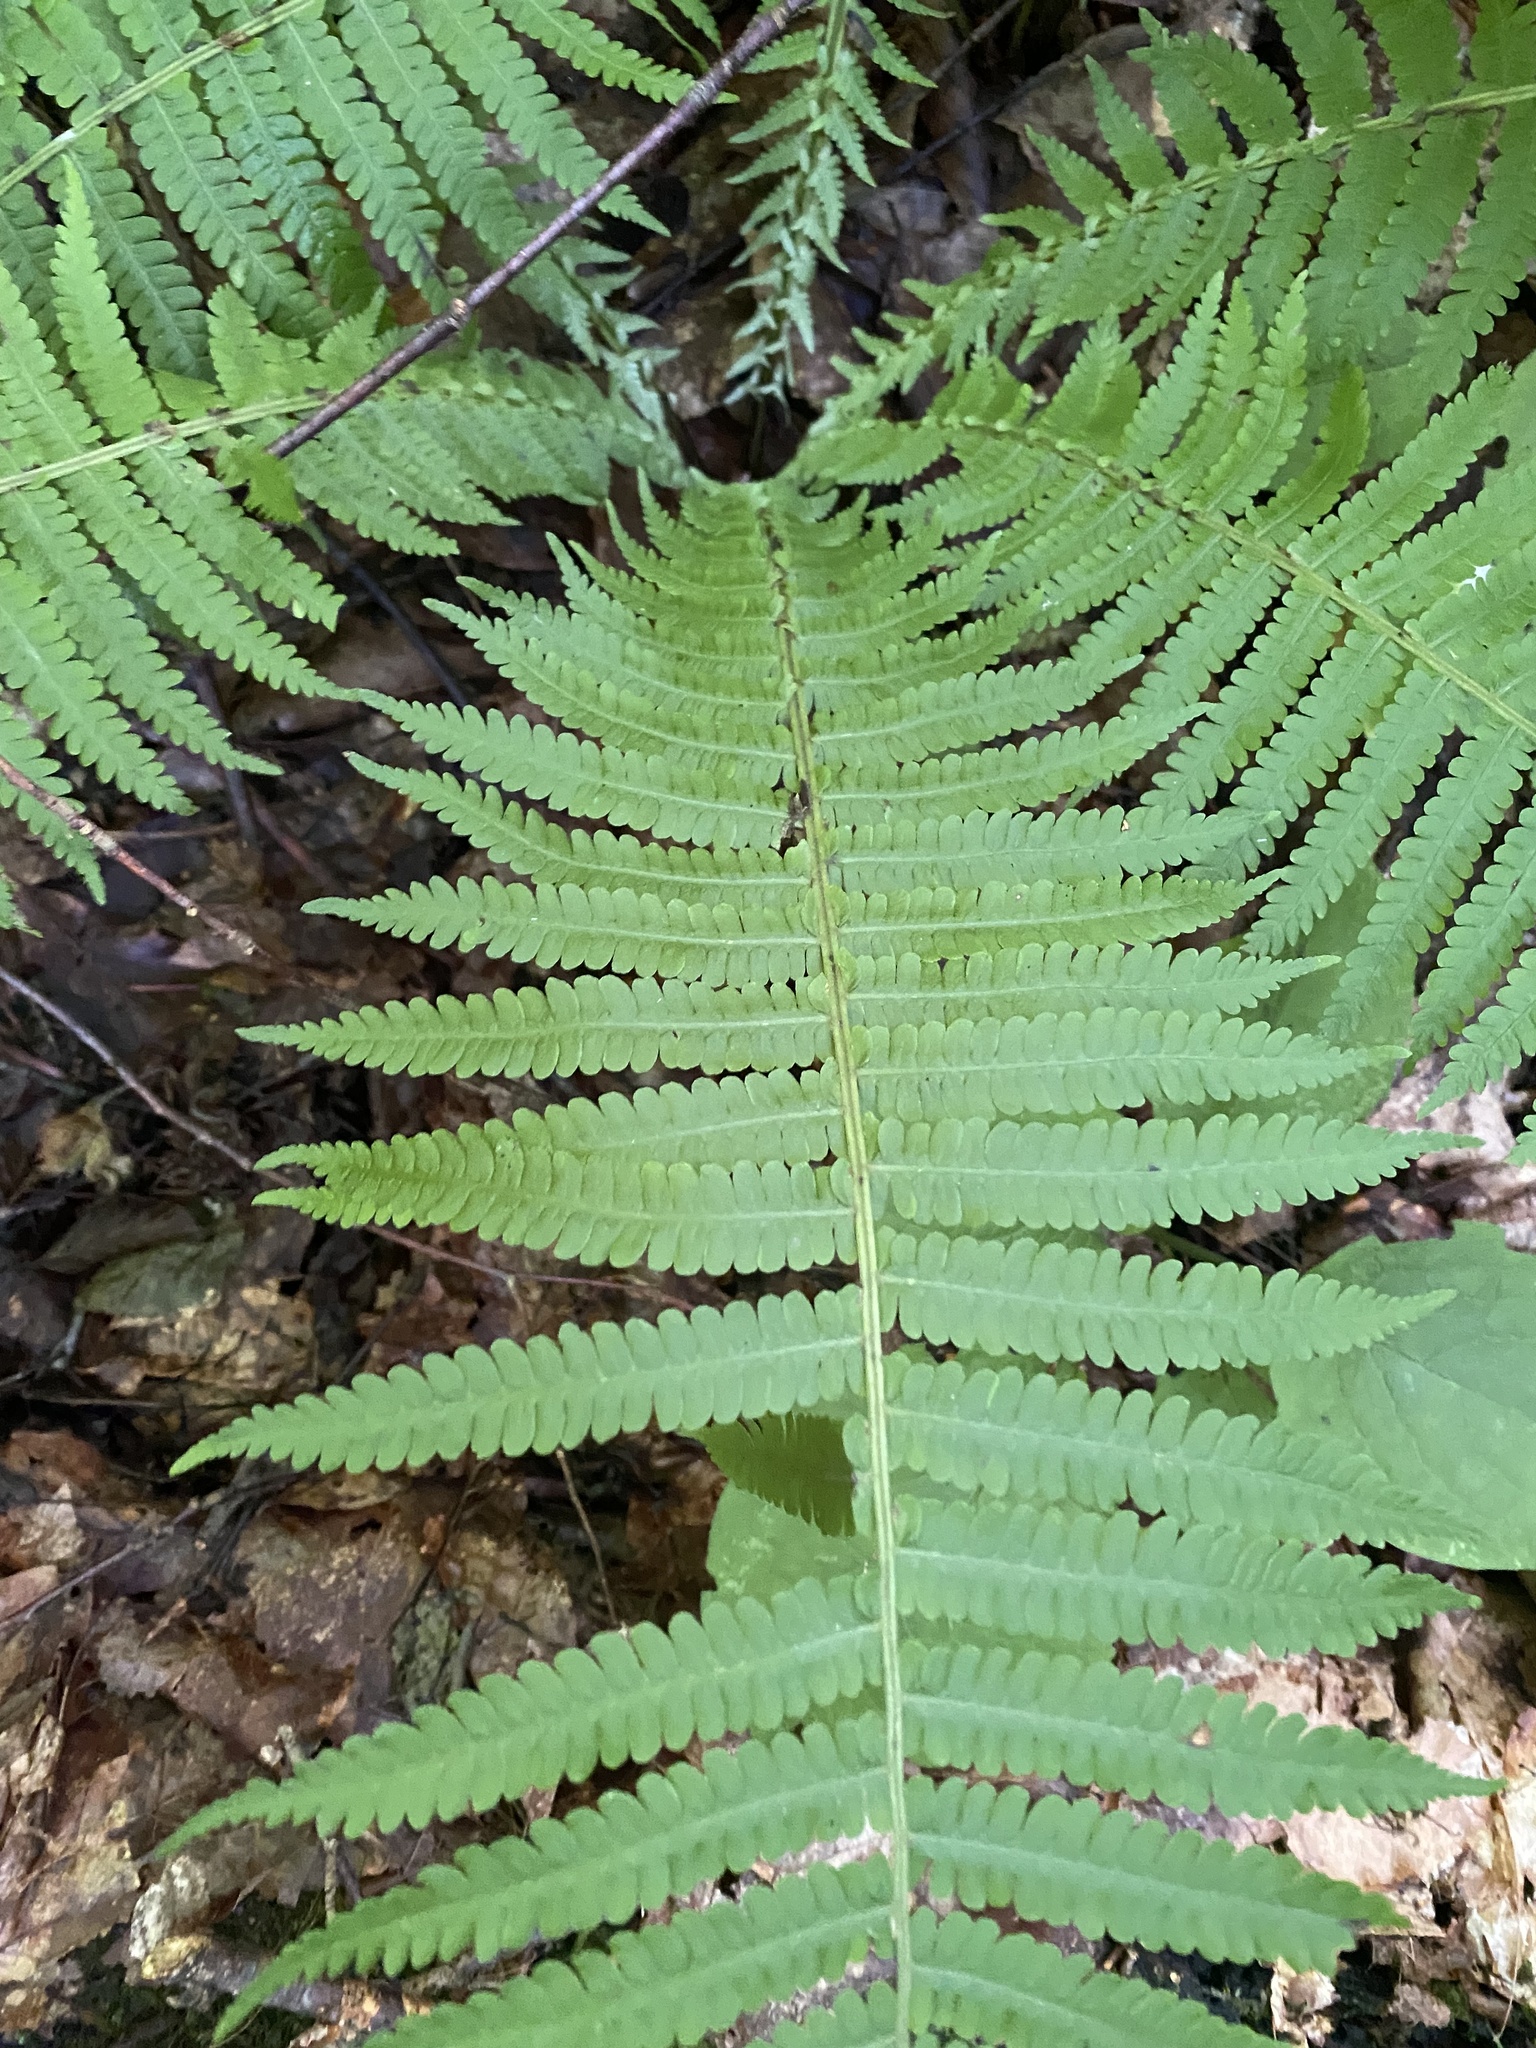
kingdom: Plantae
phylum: Tracheophyta
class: Polypodiopsida
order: Polypodiales
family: Onocleaceae
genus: Matteuccia
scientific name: Matteuccia struthiopteris
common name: Ostrich fern
